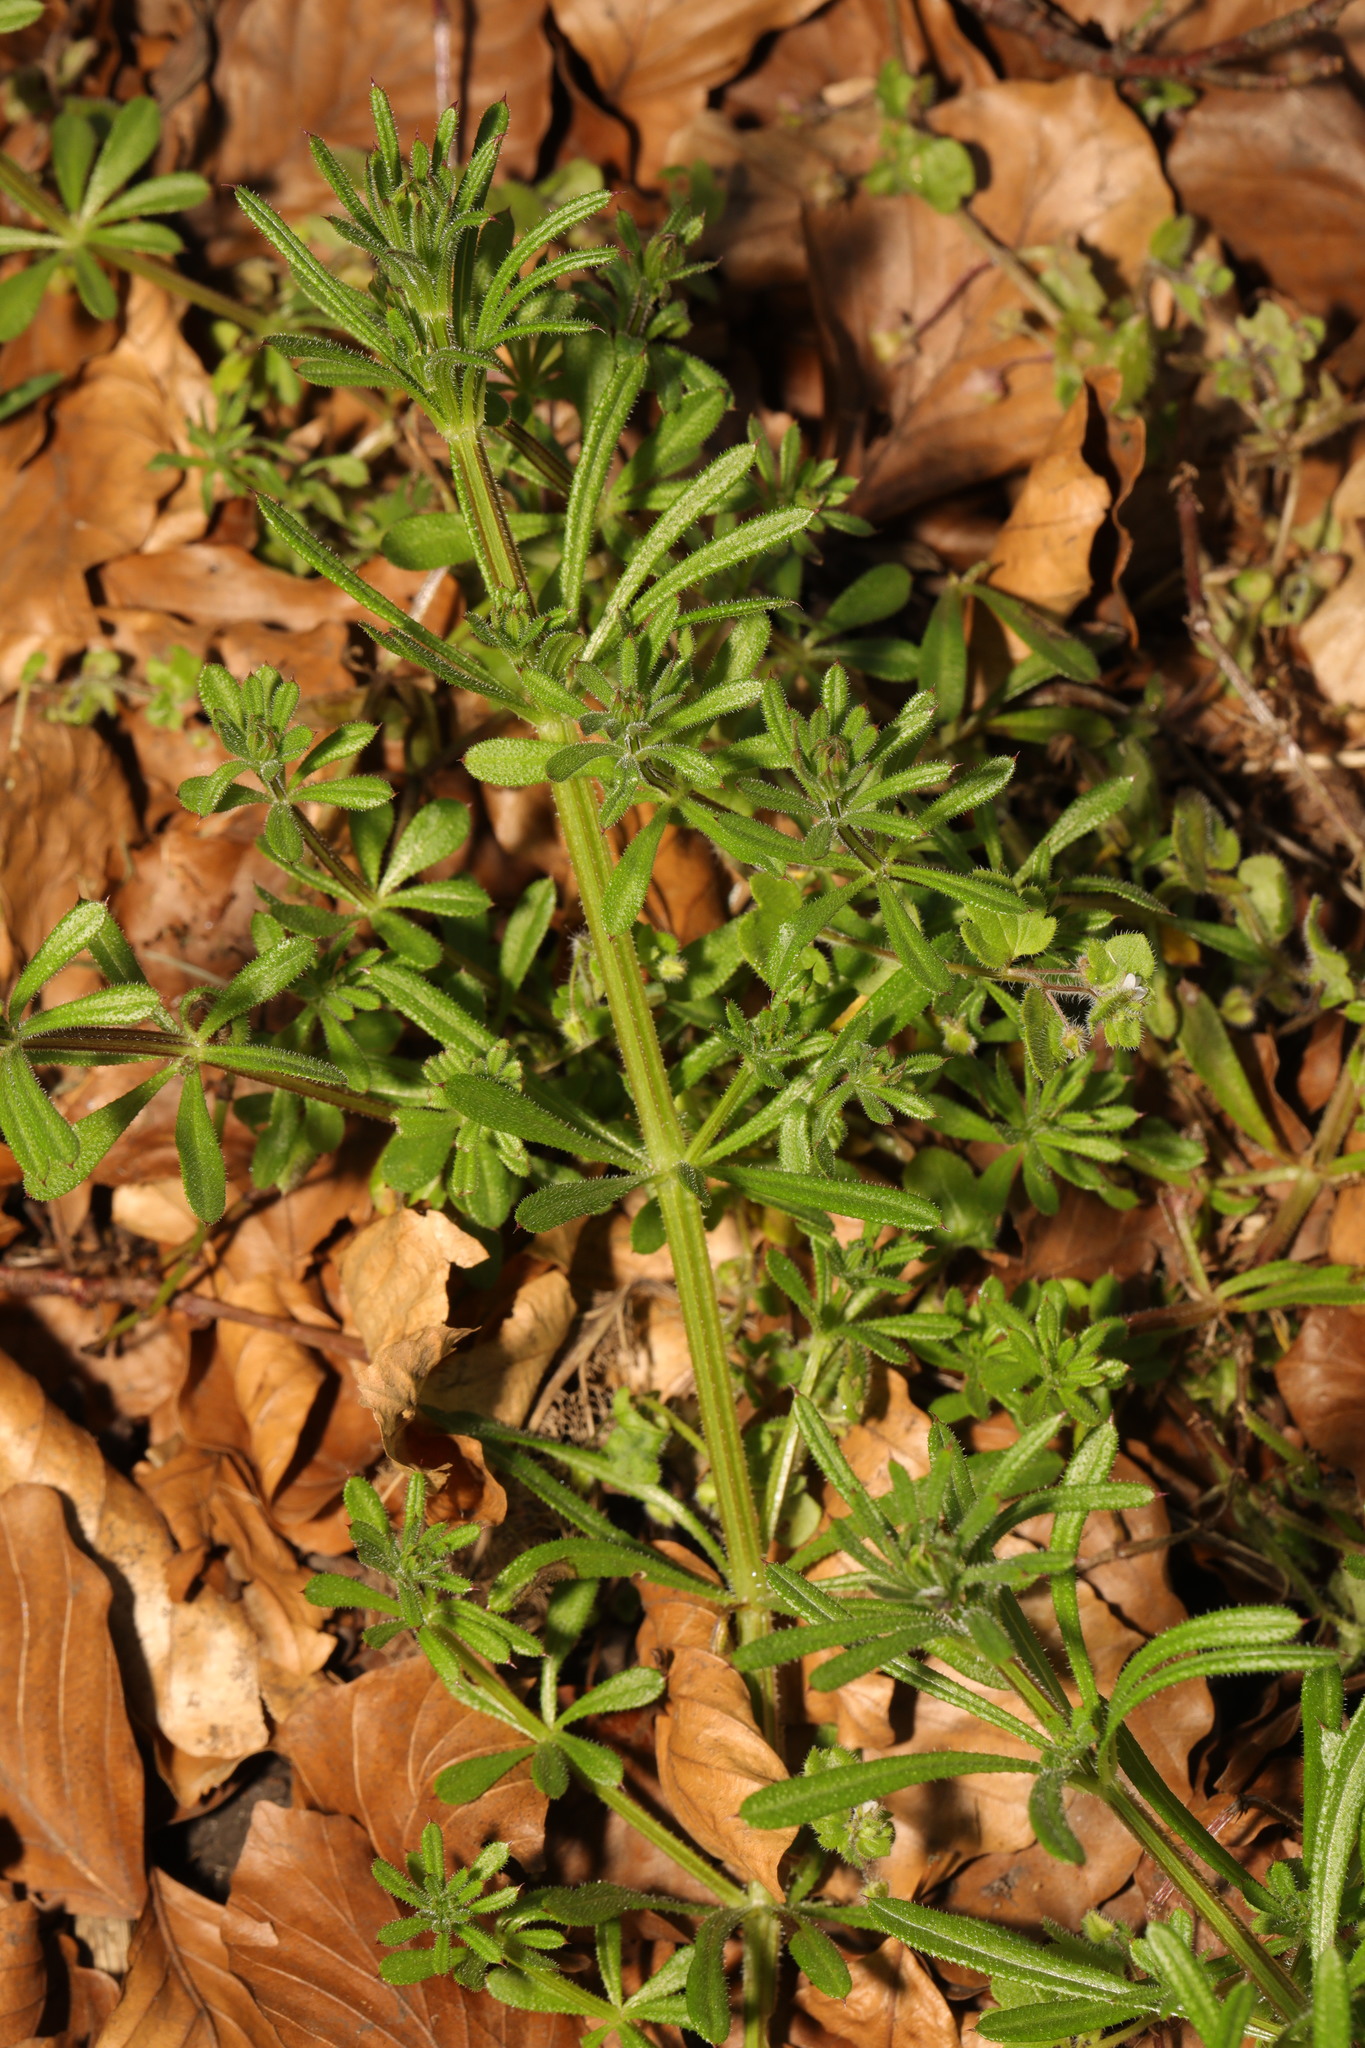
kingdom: Plantae
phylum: Tracheophyta
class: Magnoliopsida
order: Gentianales
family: Rubiaceae
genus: Galium
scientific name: Galium aparine
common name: Cleavers
